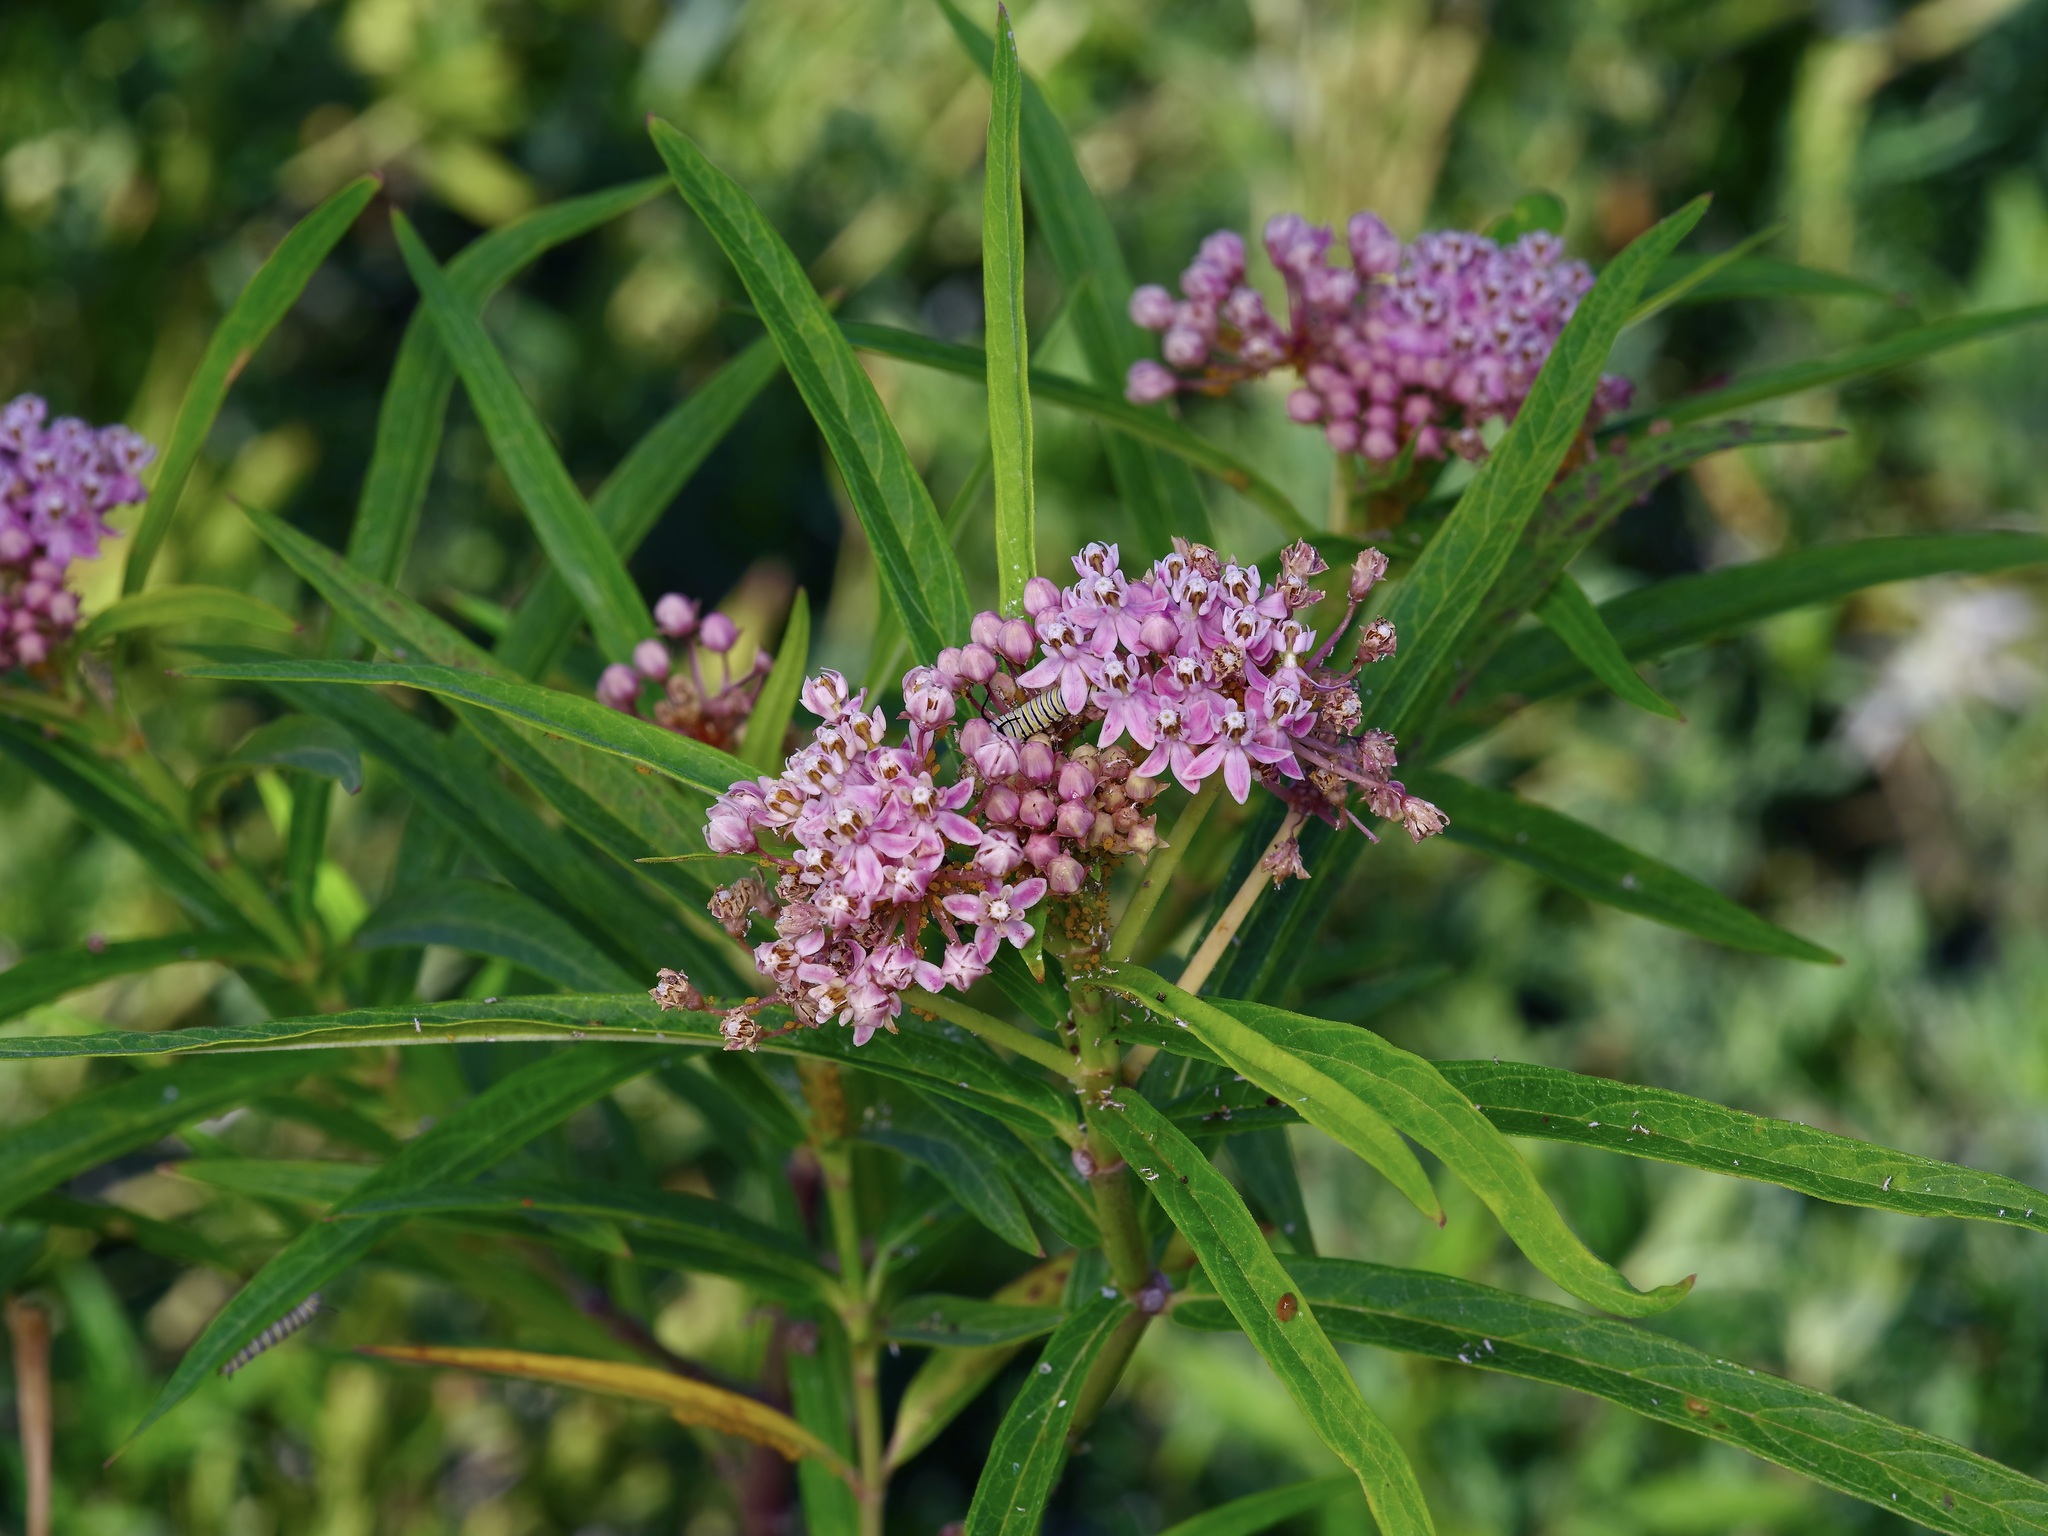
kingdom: Plantae
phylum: Tracheophyta
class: Magnoliopsida
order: Gentianales
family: Apocynaceae
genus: Asclepias
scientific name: Asclepias incarnata
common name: Swamp milkweed
